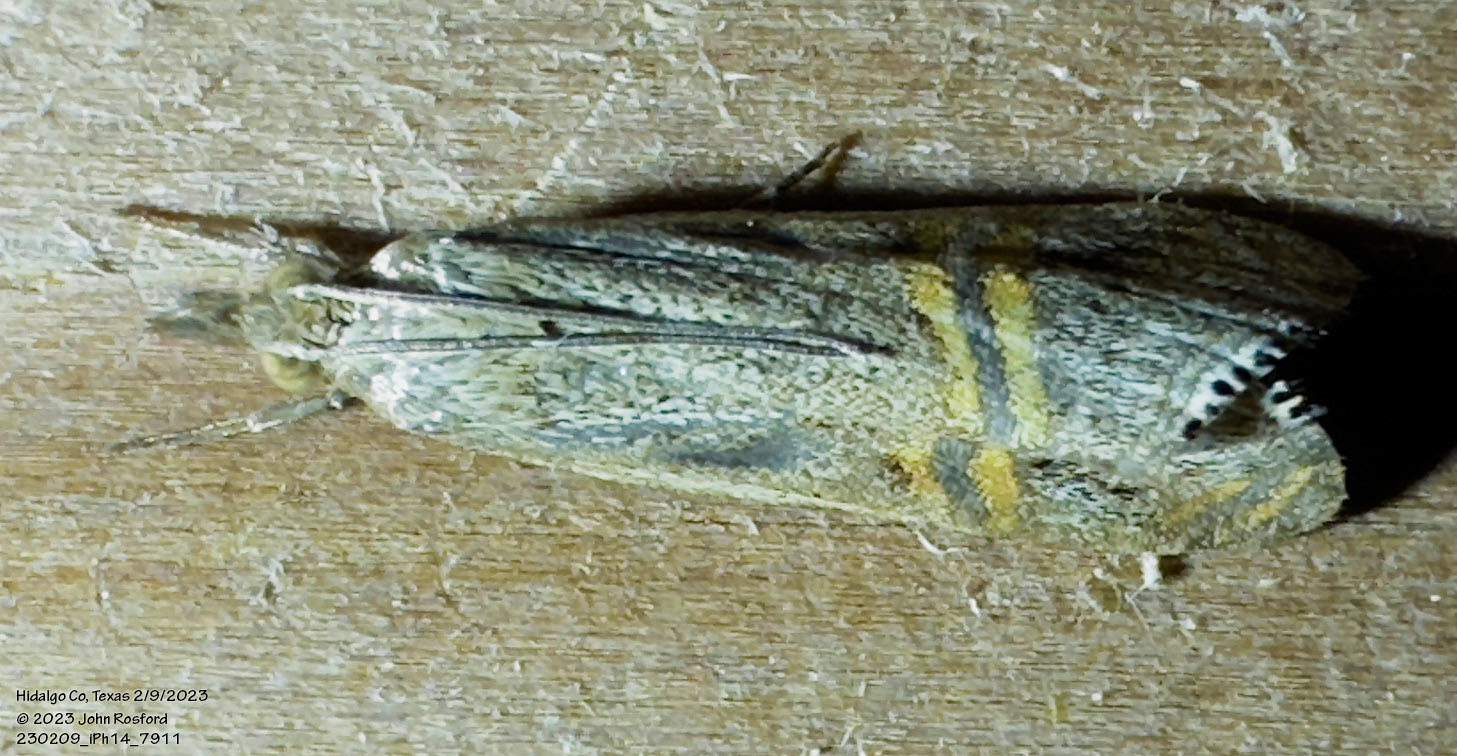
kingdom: Animalia
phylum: Arthropoda
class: Insecta
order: Lepidoptera
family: Crambidae
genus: Euchromius
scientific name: Euchromius ocellea
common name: Necklace veneer moth
